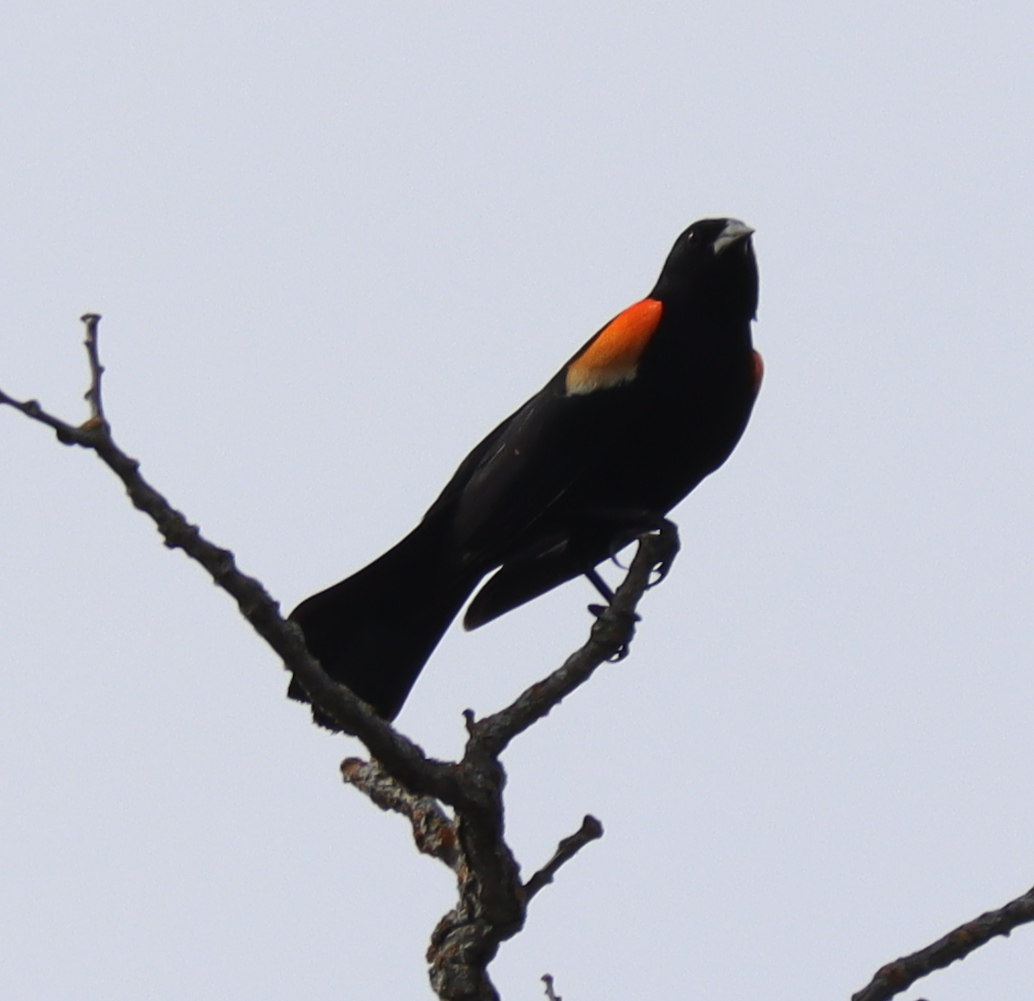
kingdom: Animalia
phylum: Chordata
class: Aves
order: Passeriformes
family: Icteridae
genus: Agelaius
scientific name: Agelaius phoeniceus
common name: Red-winged blackbird
